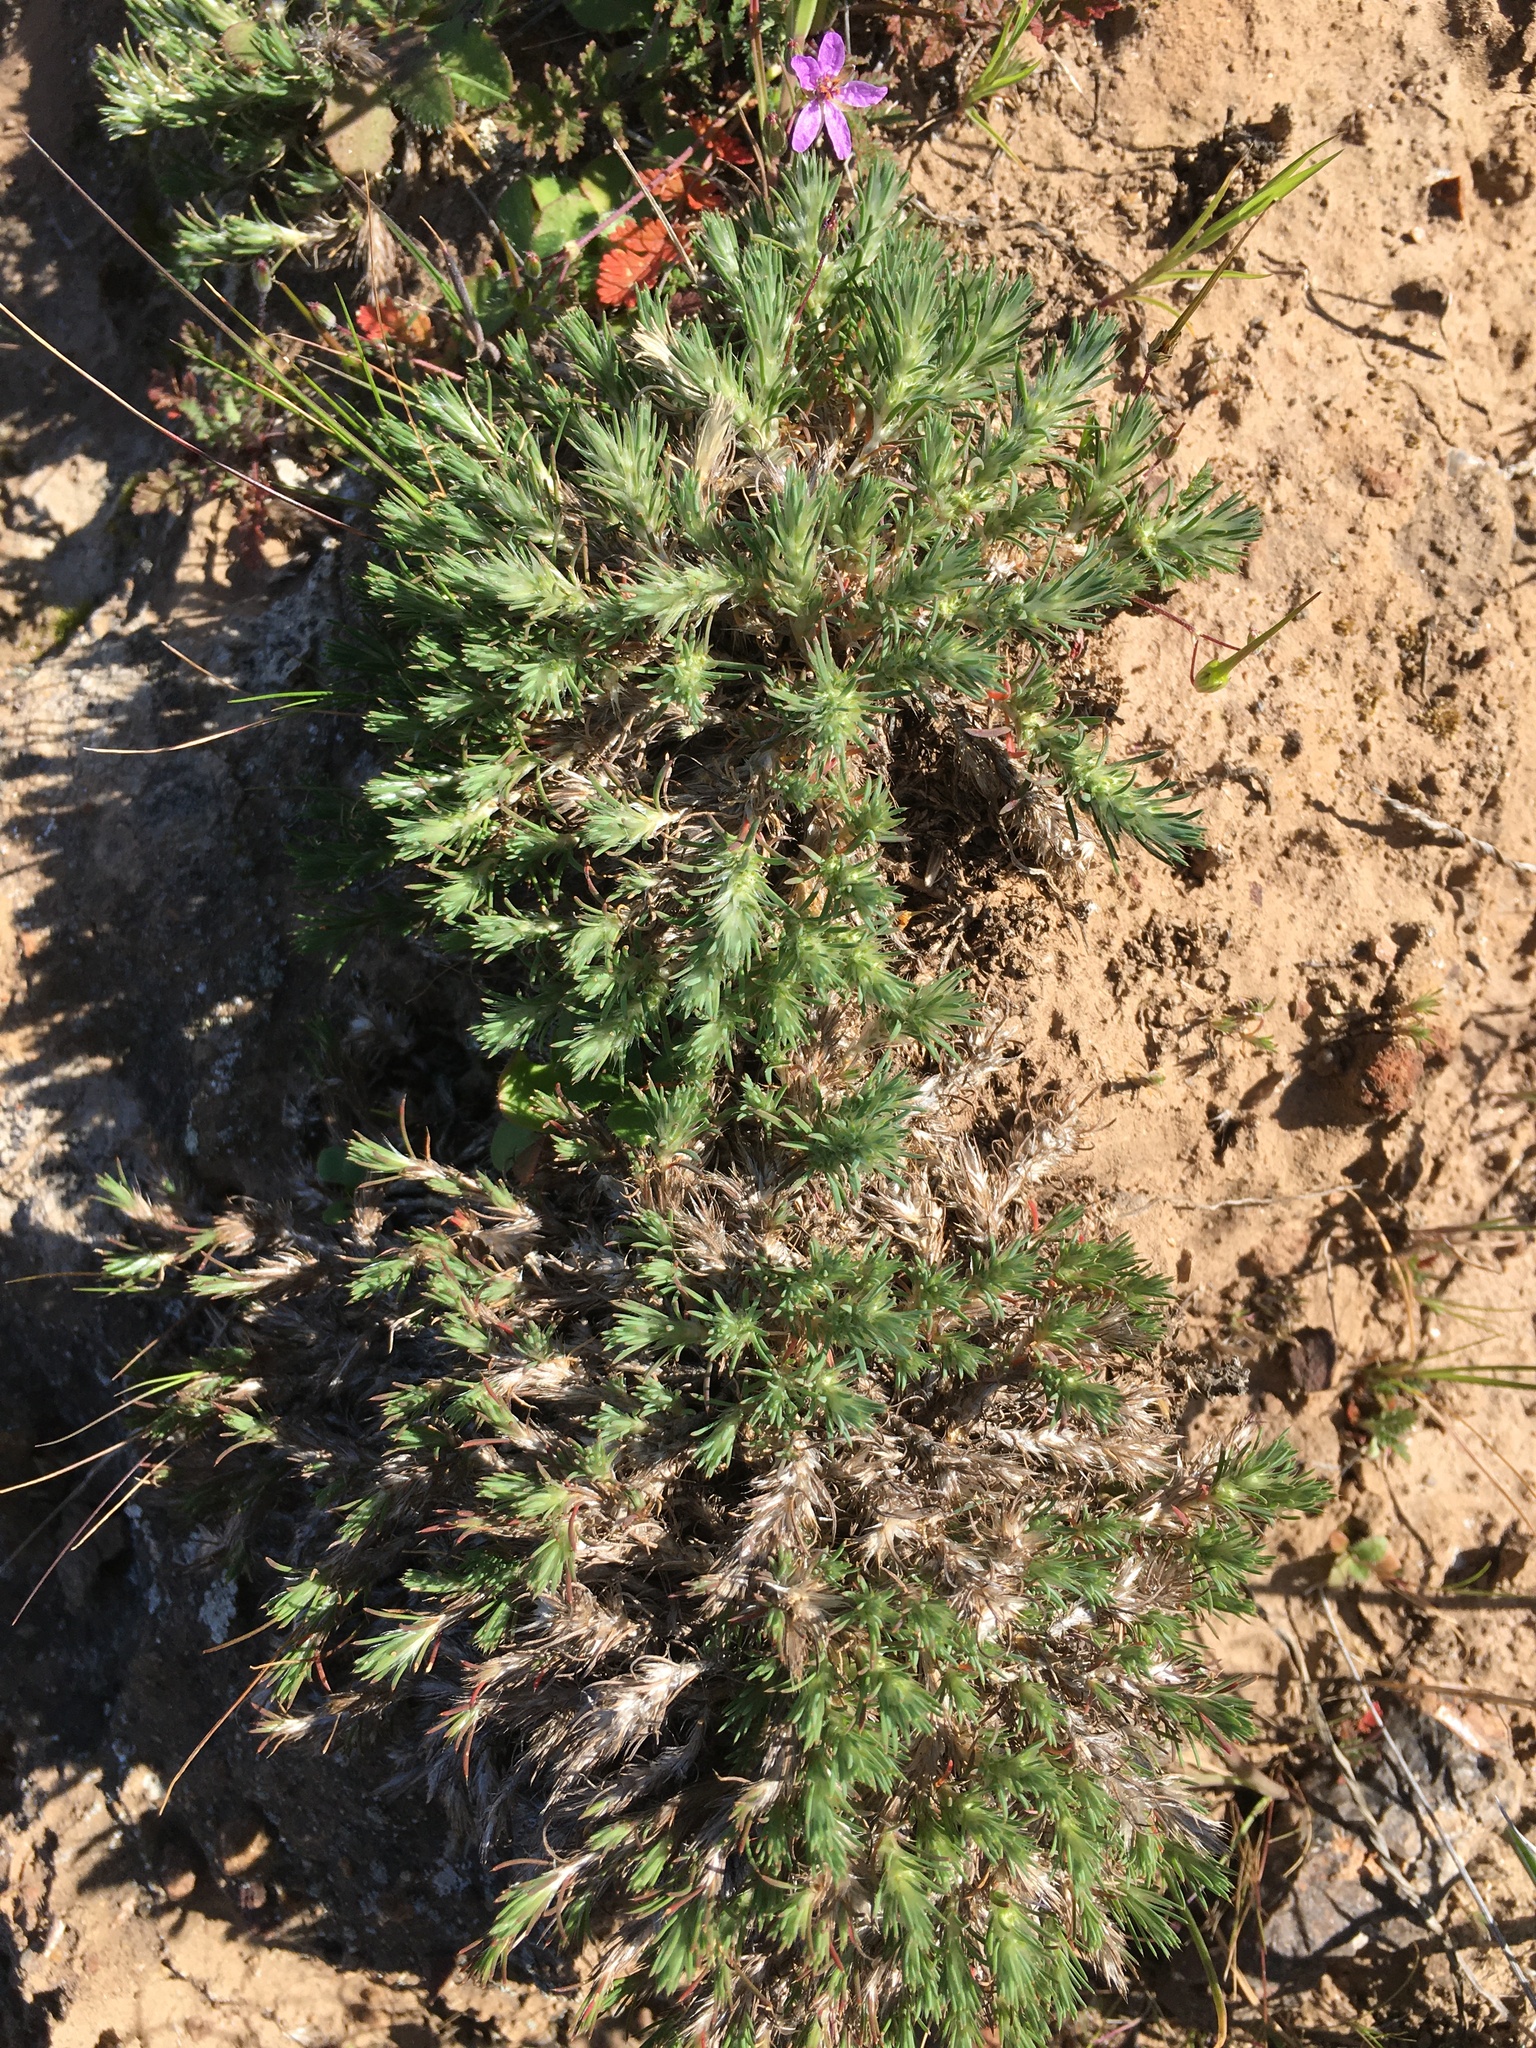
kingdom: Plantae
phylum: Tracheophyta
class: Magnoliopsida
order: Caryophyllales
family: Caryophyllaceae
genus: Cardionema
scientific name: Cardionema ramosissima
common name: Sandcarpet
